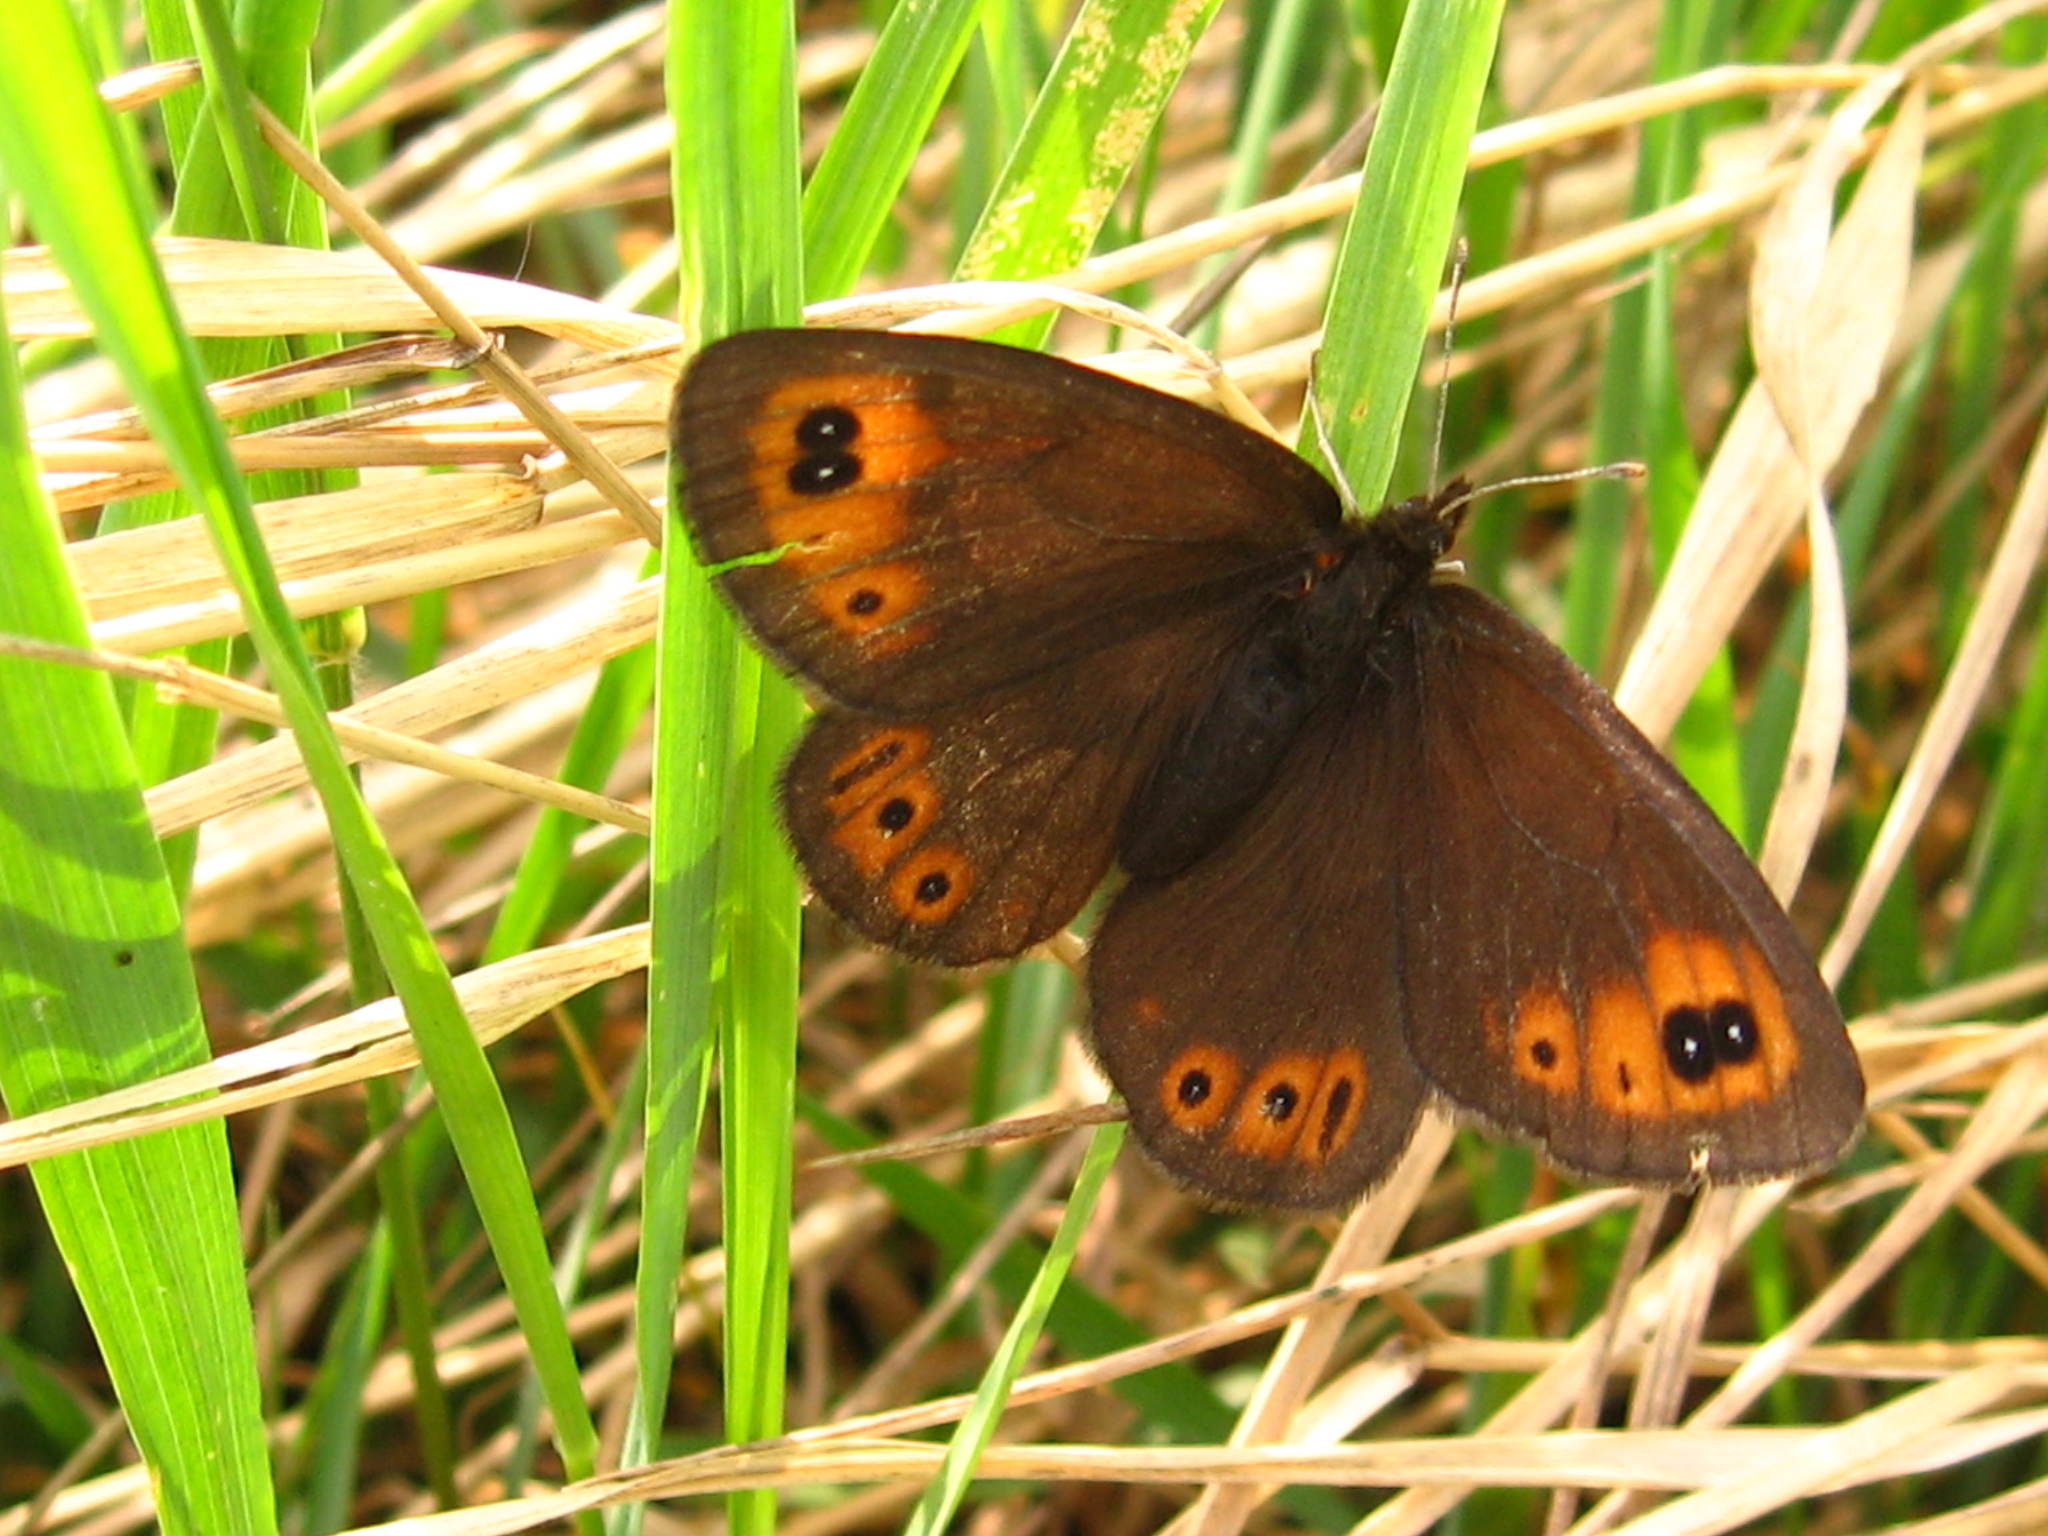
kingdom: Animalia
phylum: Arthropoda
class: Insecta
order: Lepidoptera
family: Nymphalidae
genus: Erebia
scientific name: Erebia epipsodea
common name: Common alpine
